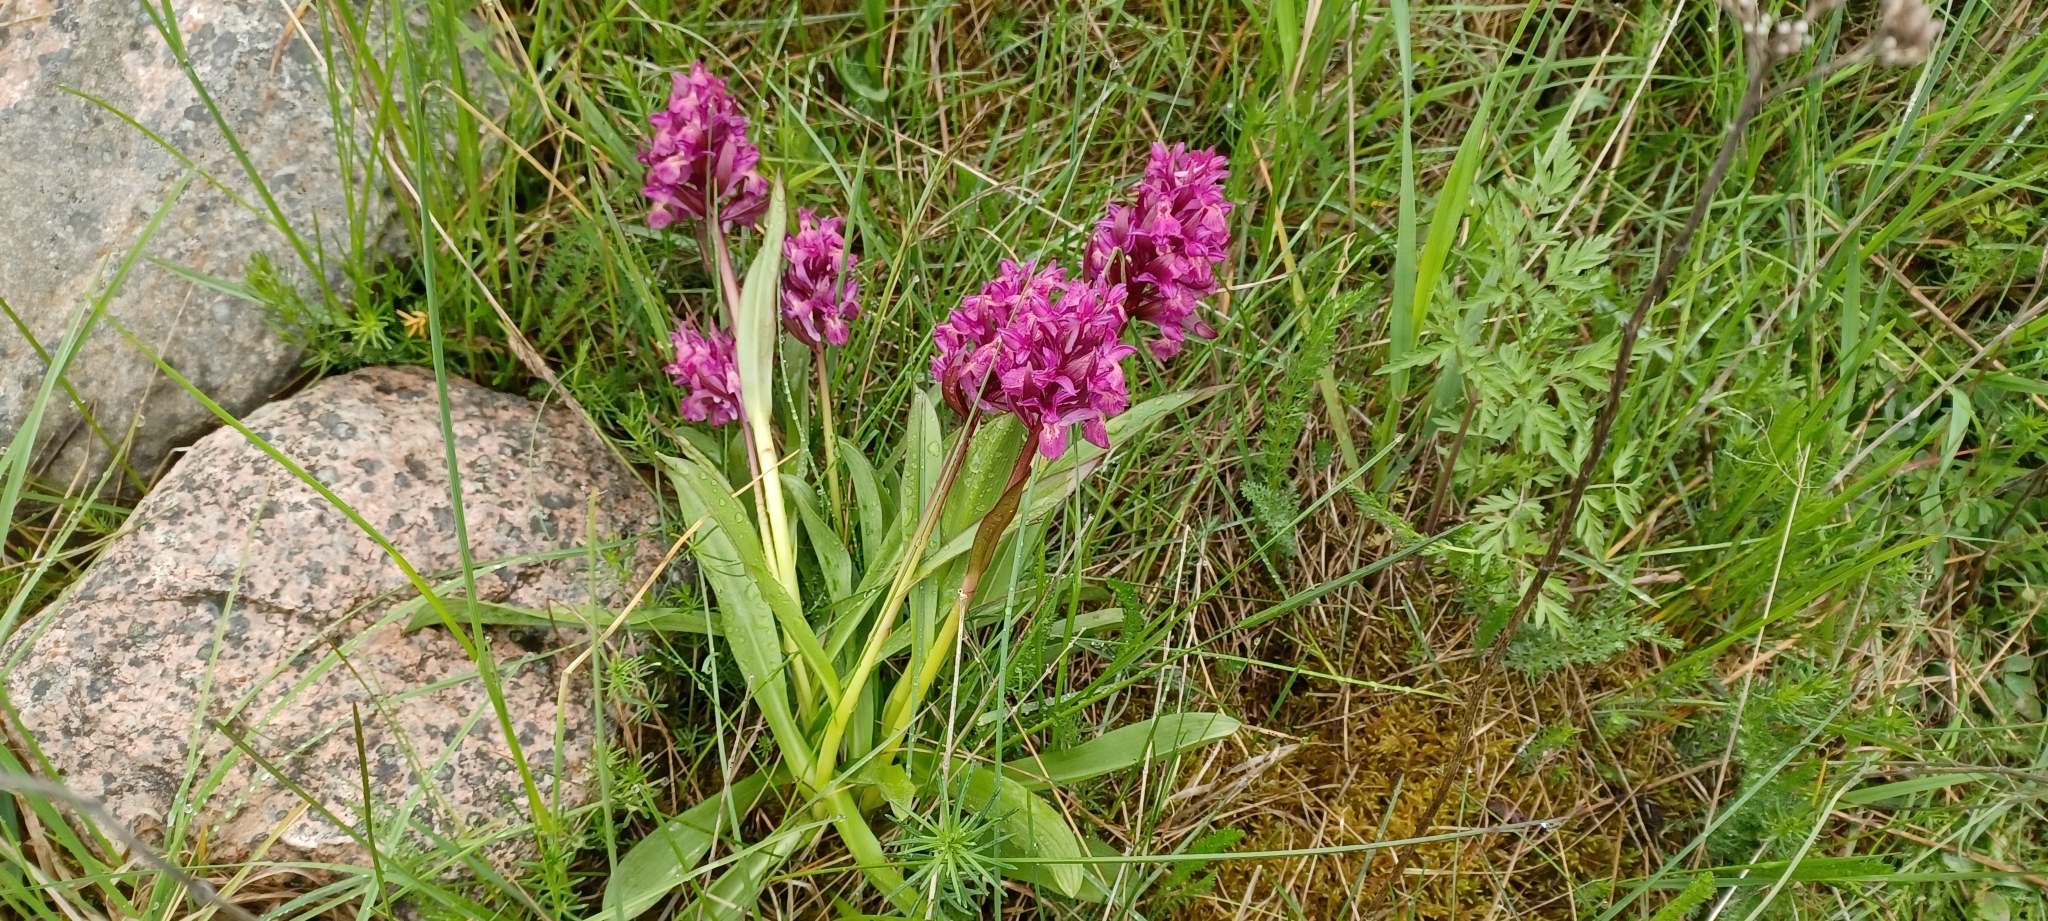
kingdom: Plantae
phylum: Tracheophyta
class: Liliopsida
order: Asparagales
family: Orchidaceae
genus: Dactylorhiza
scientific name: Dactylorhiza sambucina
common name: Elder-flowered orchid
